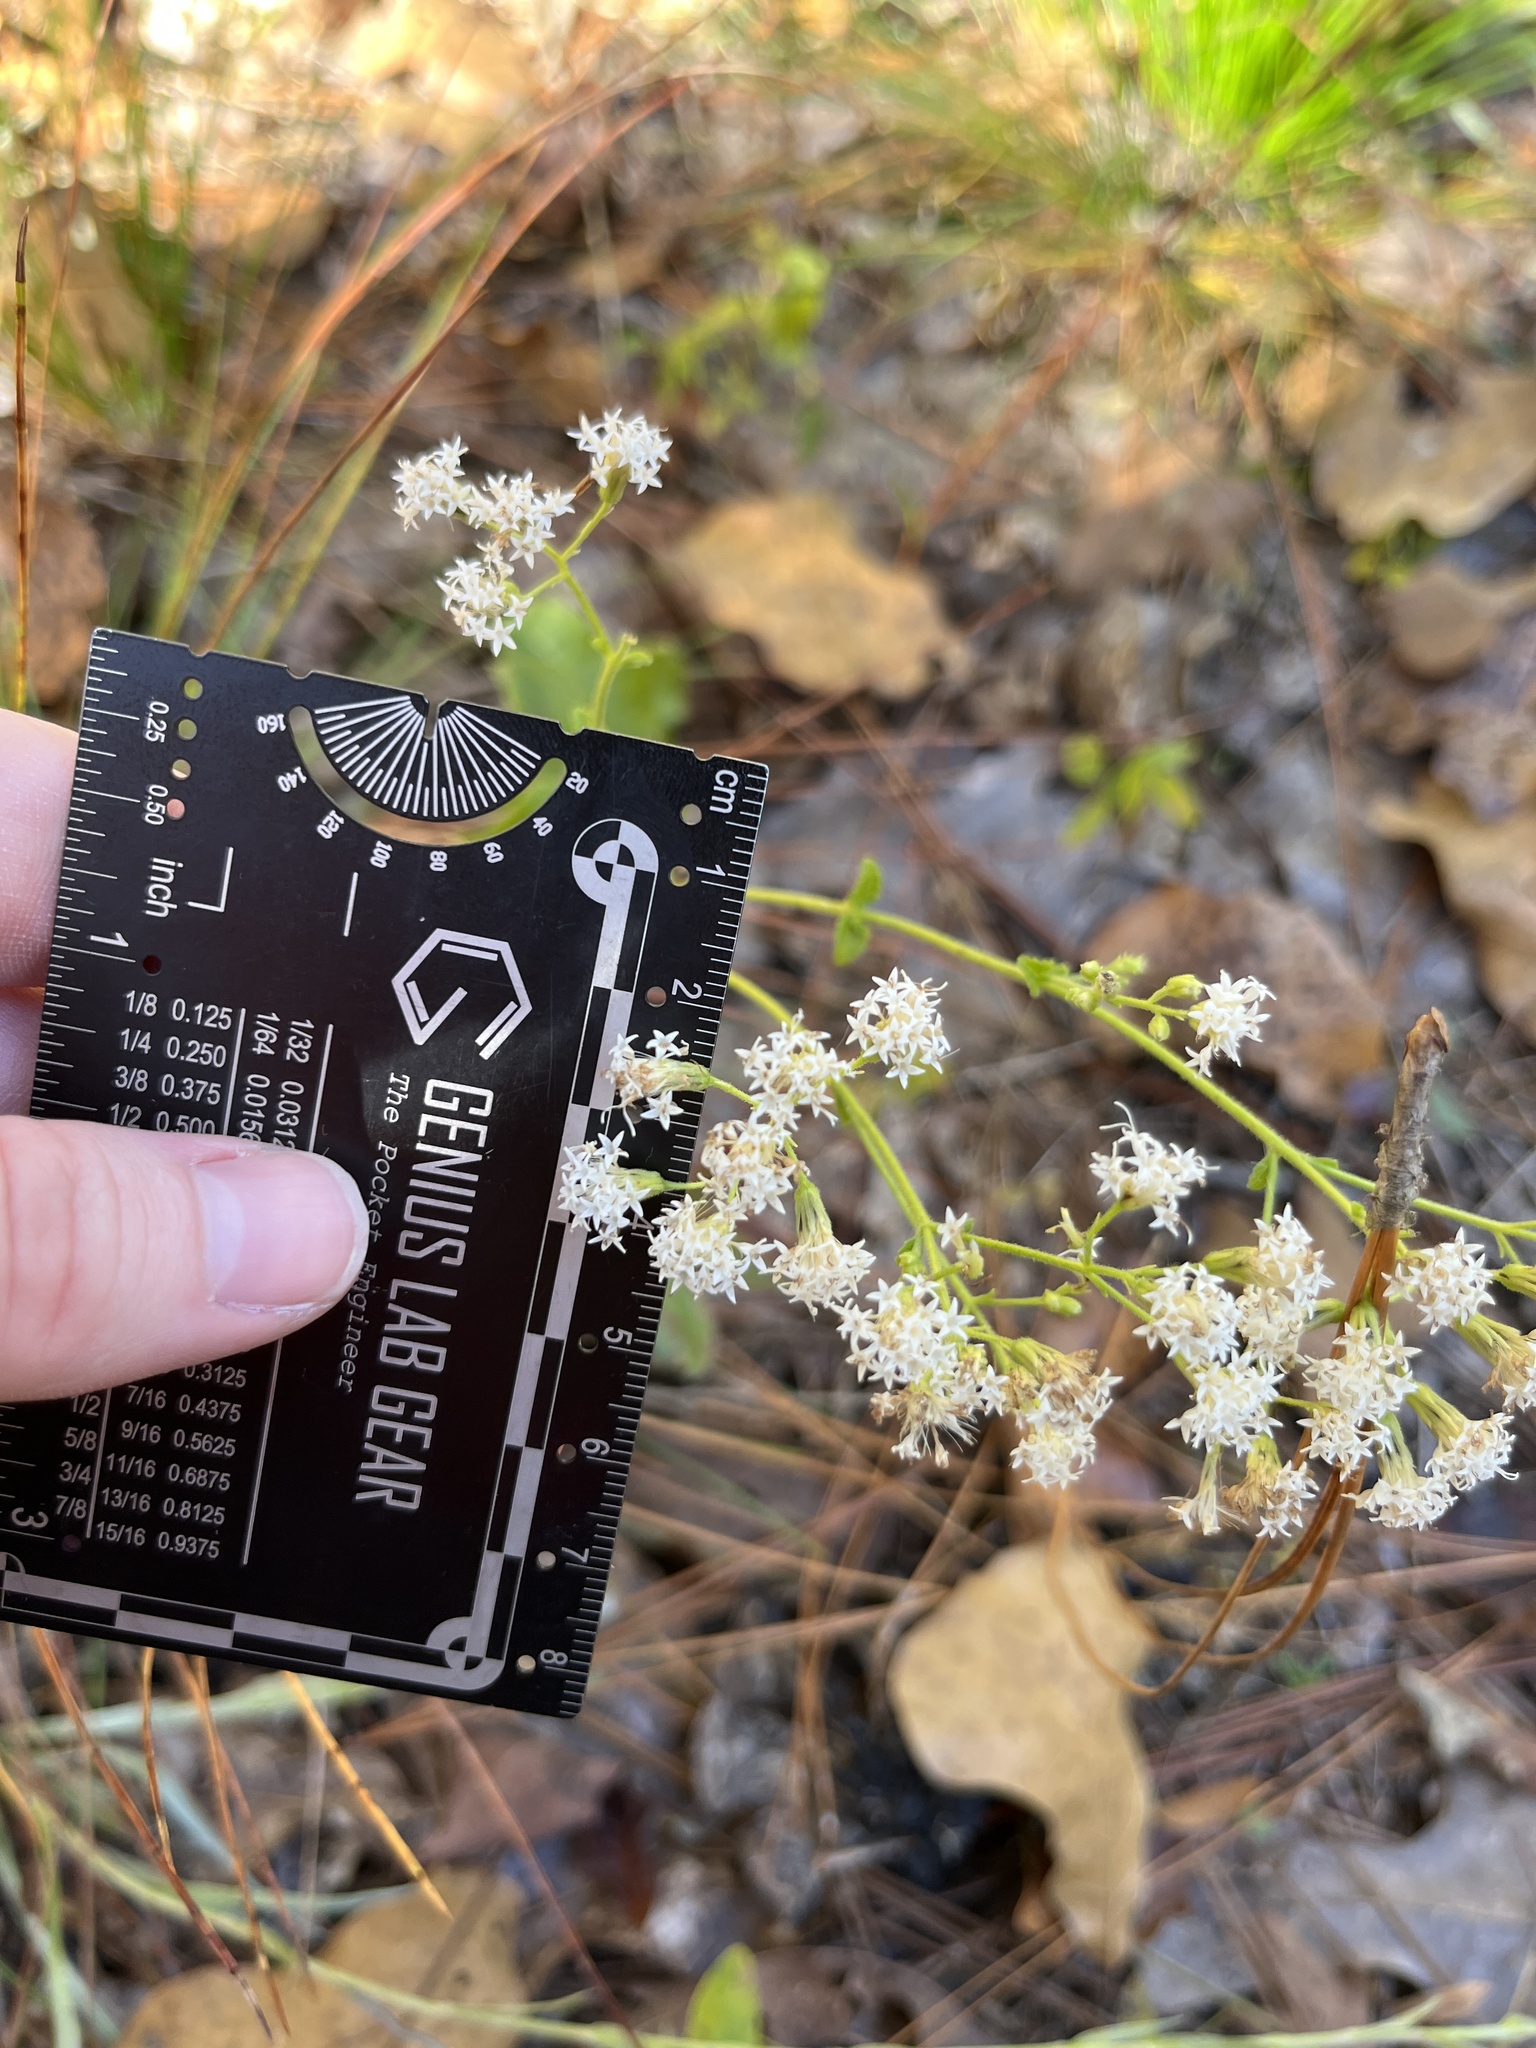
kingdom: Plantae
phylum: Tracheophyta
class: Magnoliopsida
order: Asterales
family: Asteraceae
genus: Ageratina
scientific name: Ageratina aromatica
